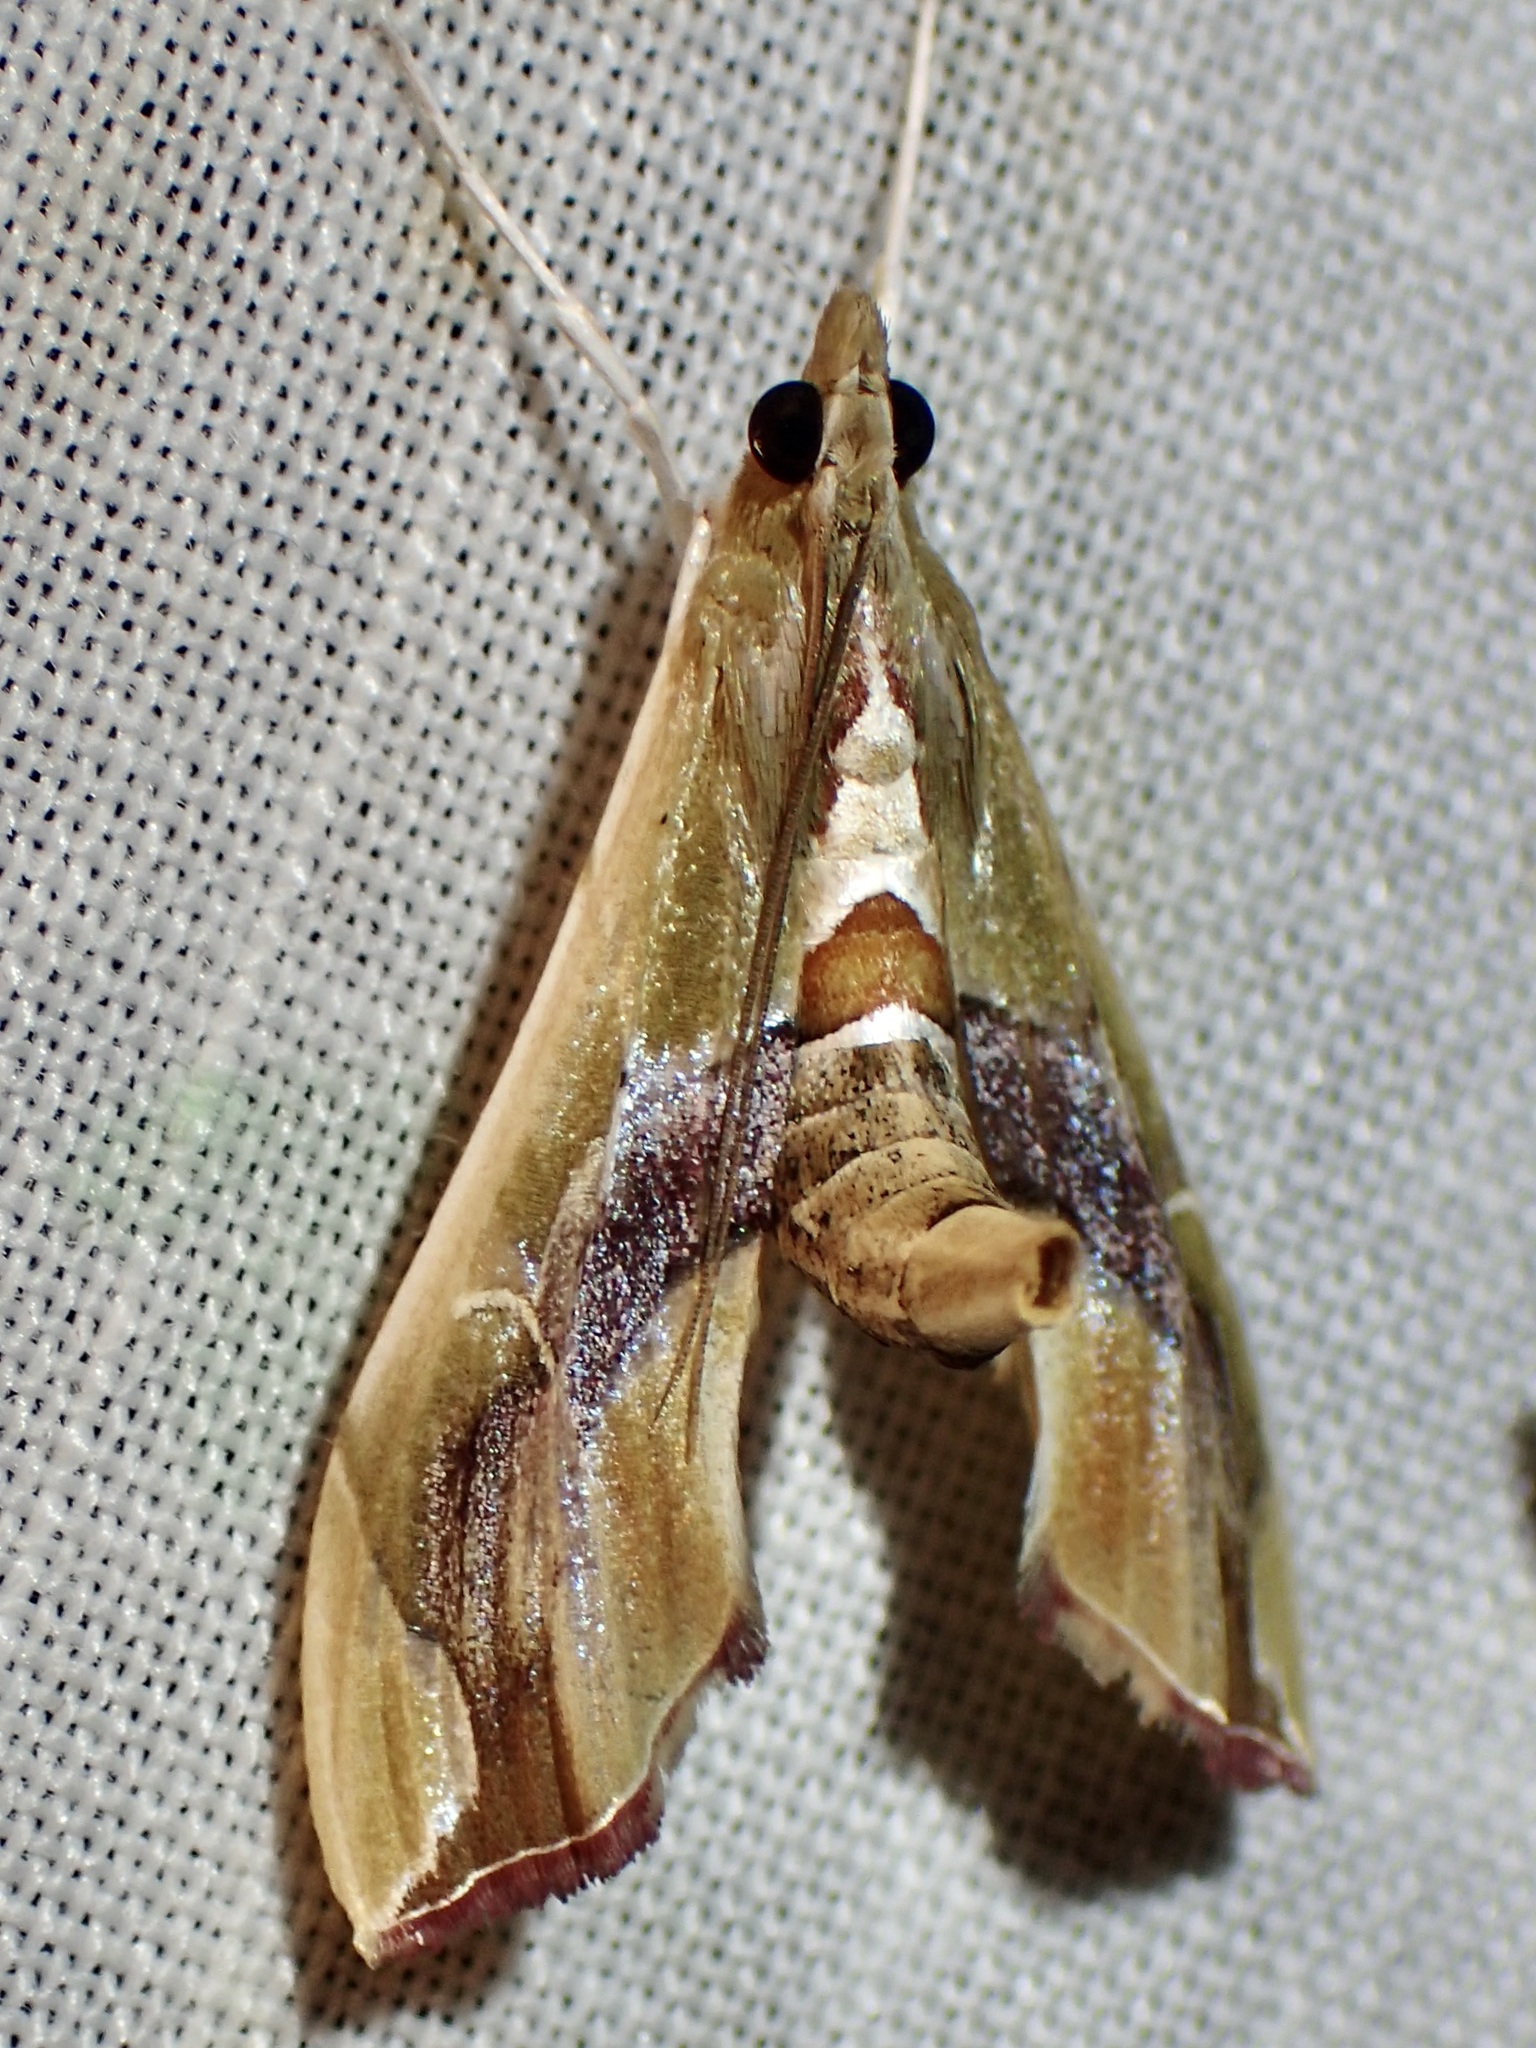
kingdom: Animalia
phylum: Arthropoda
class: Insecta
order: Lepidoptera
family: Crambidae
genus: Agathodes
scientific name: Agathodes monstralis
